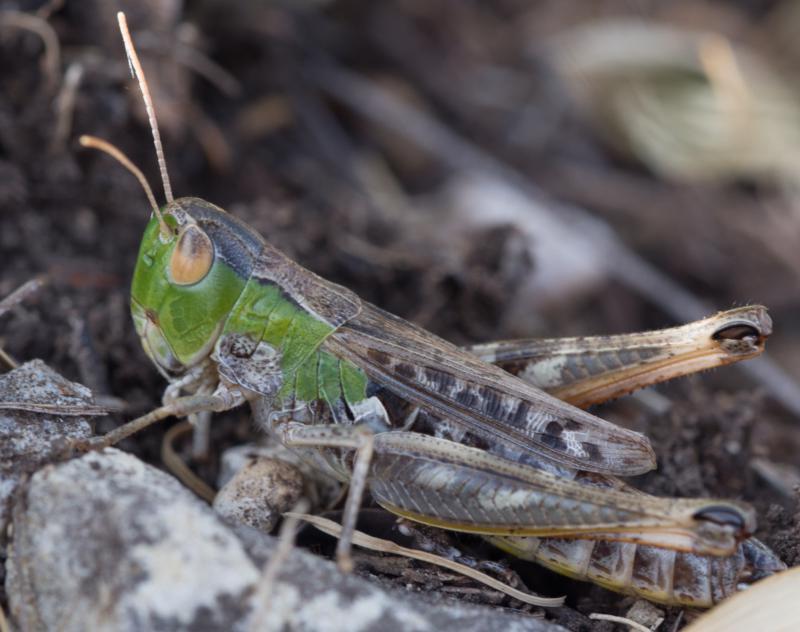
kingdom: Animalia
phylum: Arthropoda
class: Insecta
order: Orthoptera
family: Acrididae
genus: Stenobothrus
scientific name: Stenobothrus nigromaculatus
